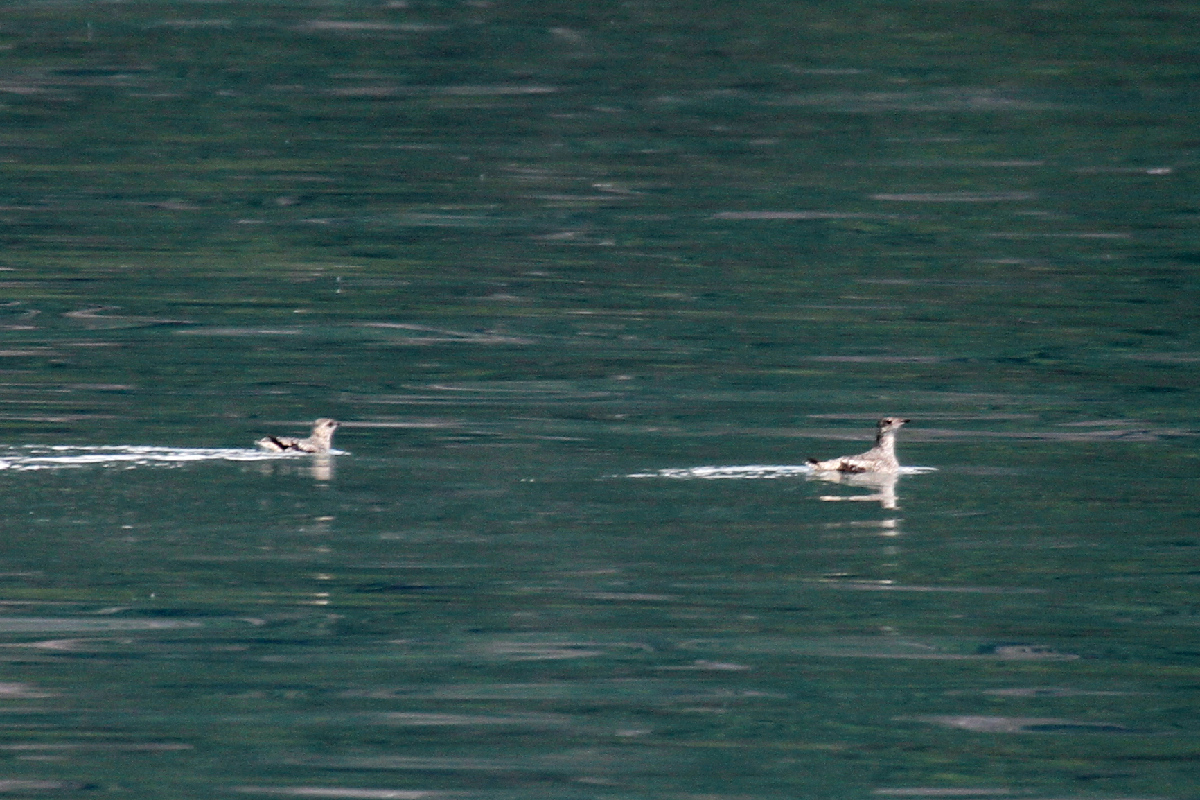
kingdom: Animalia
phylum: Chordata
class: Aves
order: Charadriiformes
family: Alcidae
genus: Brachyramphus
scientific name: Brachyramphus brevirostris
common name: Kittlitz's murrelet
